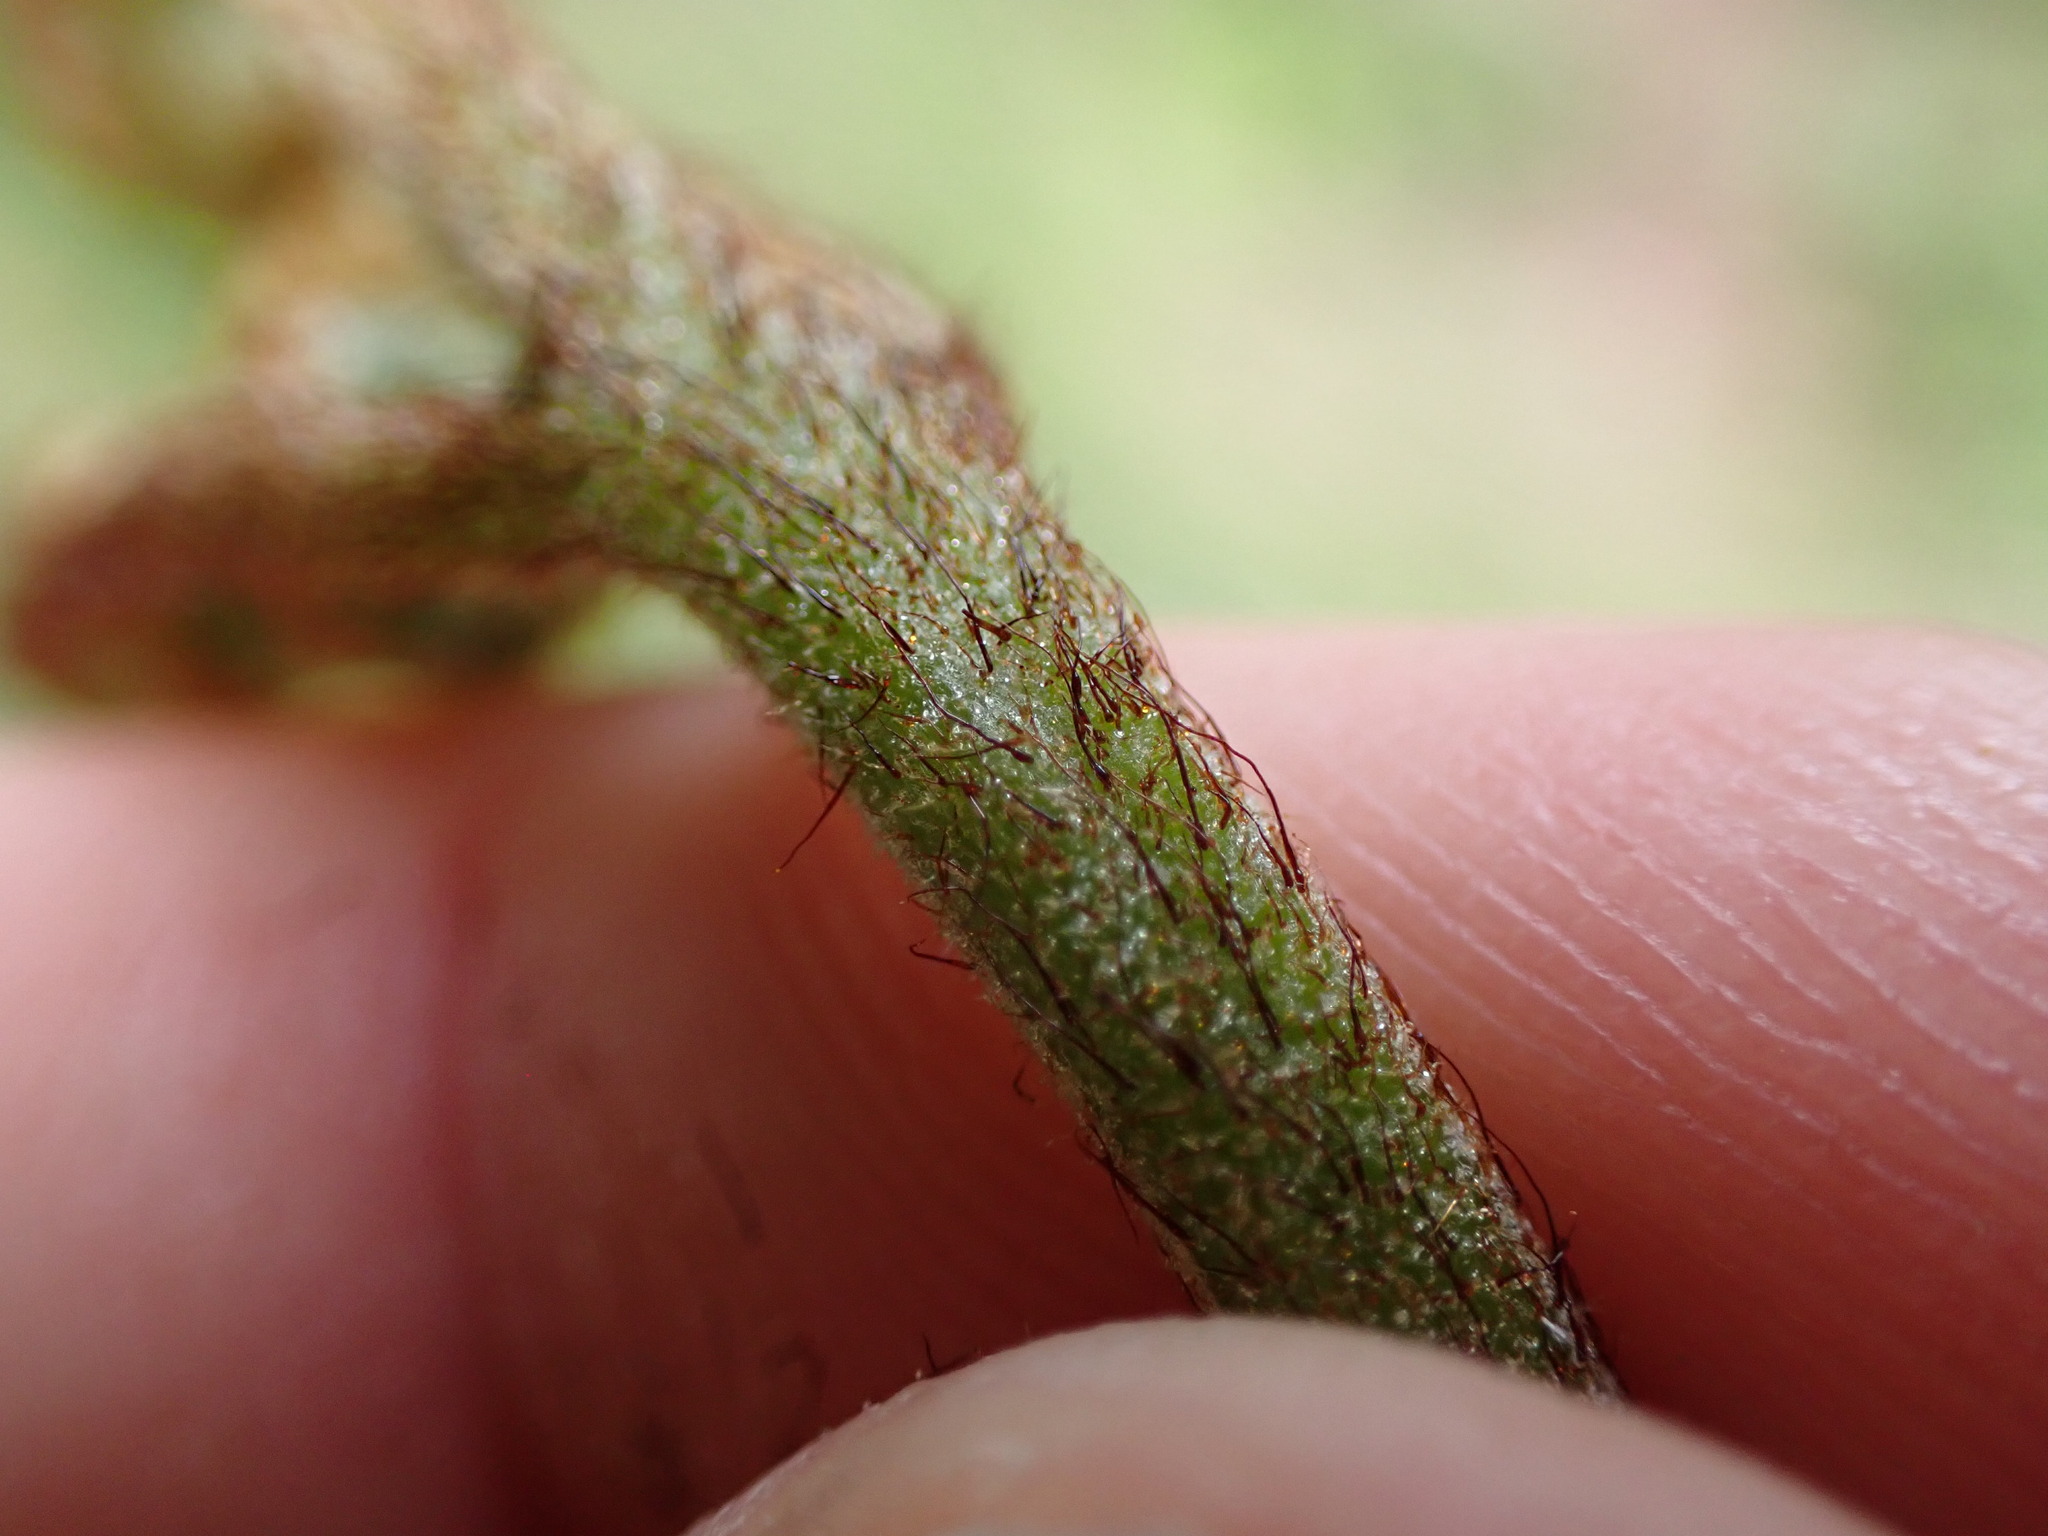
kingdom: Plantae
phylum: Tracheophyta
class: Polypodiopsida
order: Polypodiales
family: Dennstaedtiaceae
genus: Pteridium
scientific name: Pteridium aquilinum
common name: Bracken
